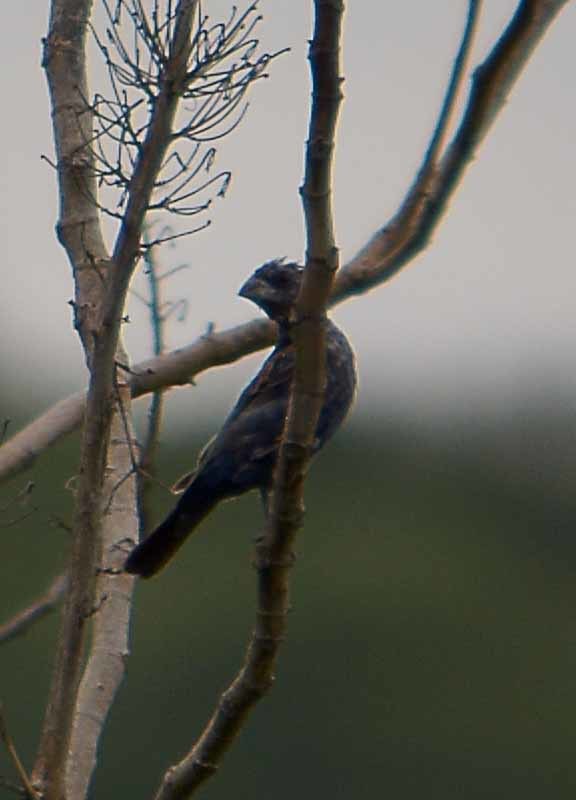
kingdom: Animalia
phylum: Chordata
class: Aves
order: Passeriformes
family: Cardinalidae
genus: Passerina
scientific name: Passerina caerulea
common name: Blue grosbeak
